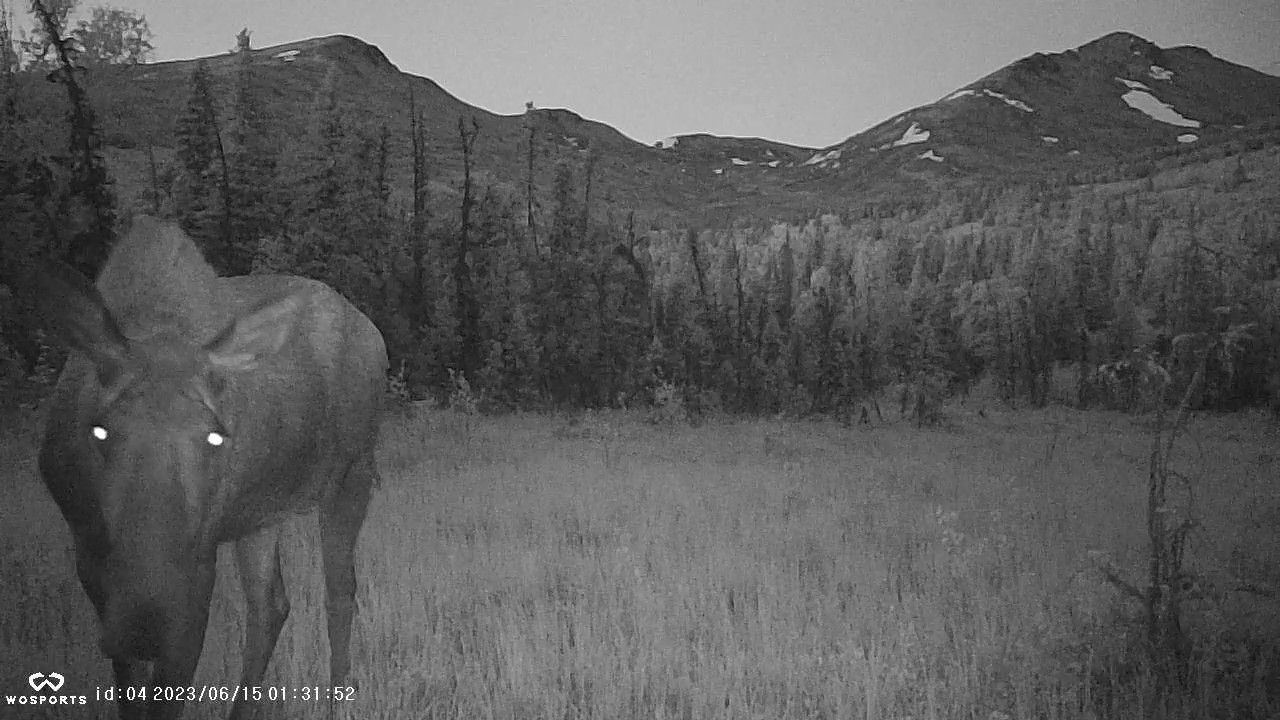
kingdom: Animalia
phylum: Chordata
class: Mammalia
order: Artiodactyla
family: Cervidae
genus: Alces
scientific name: Alces alces
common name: Moose
